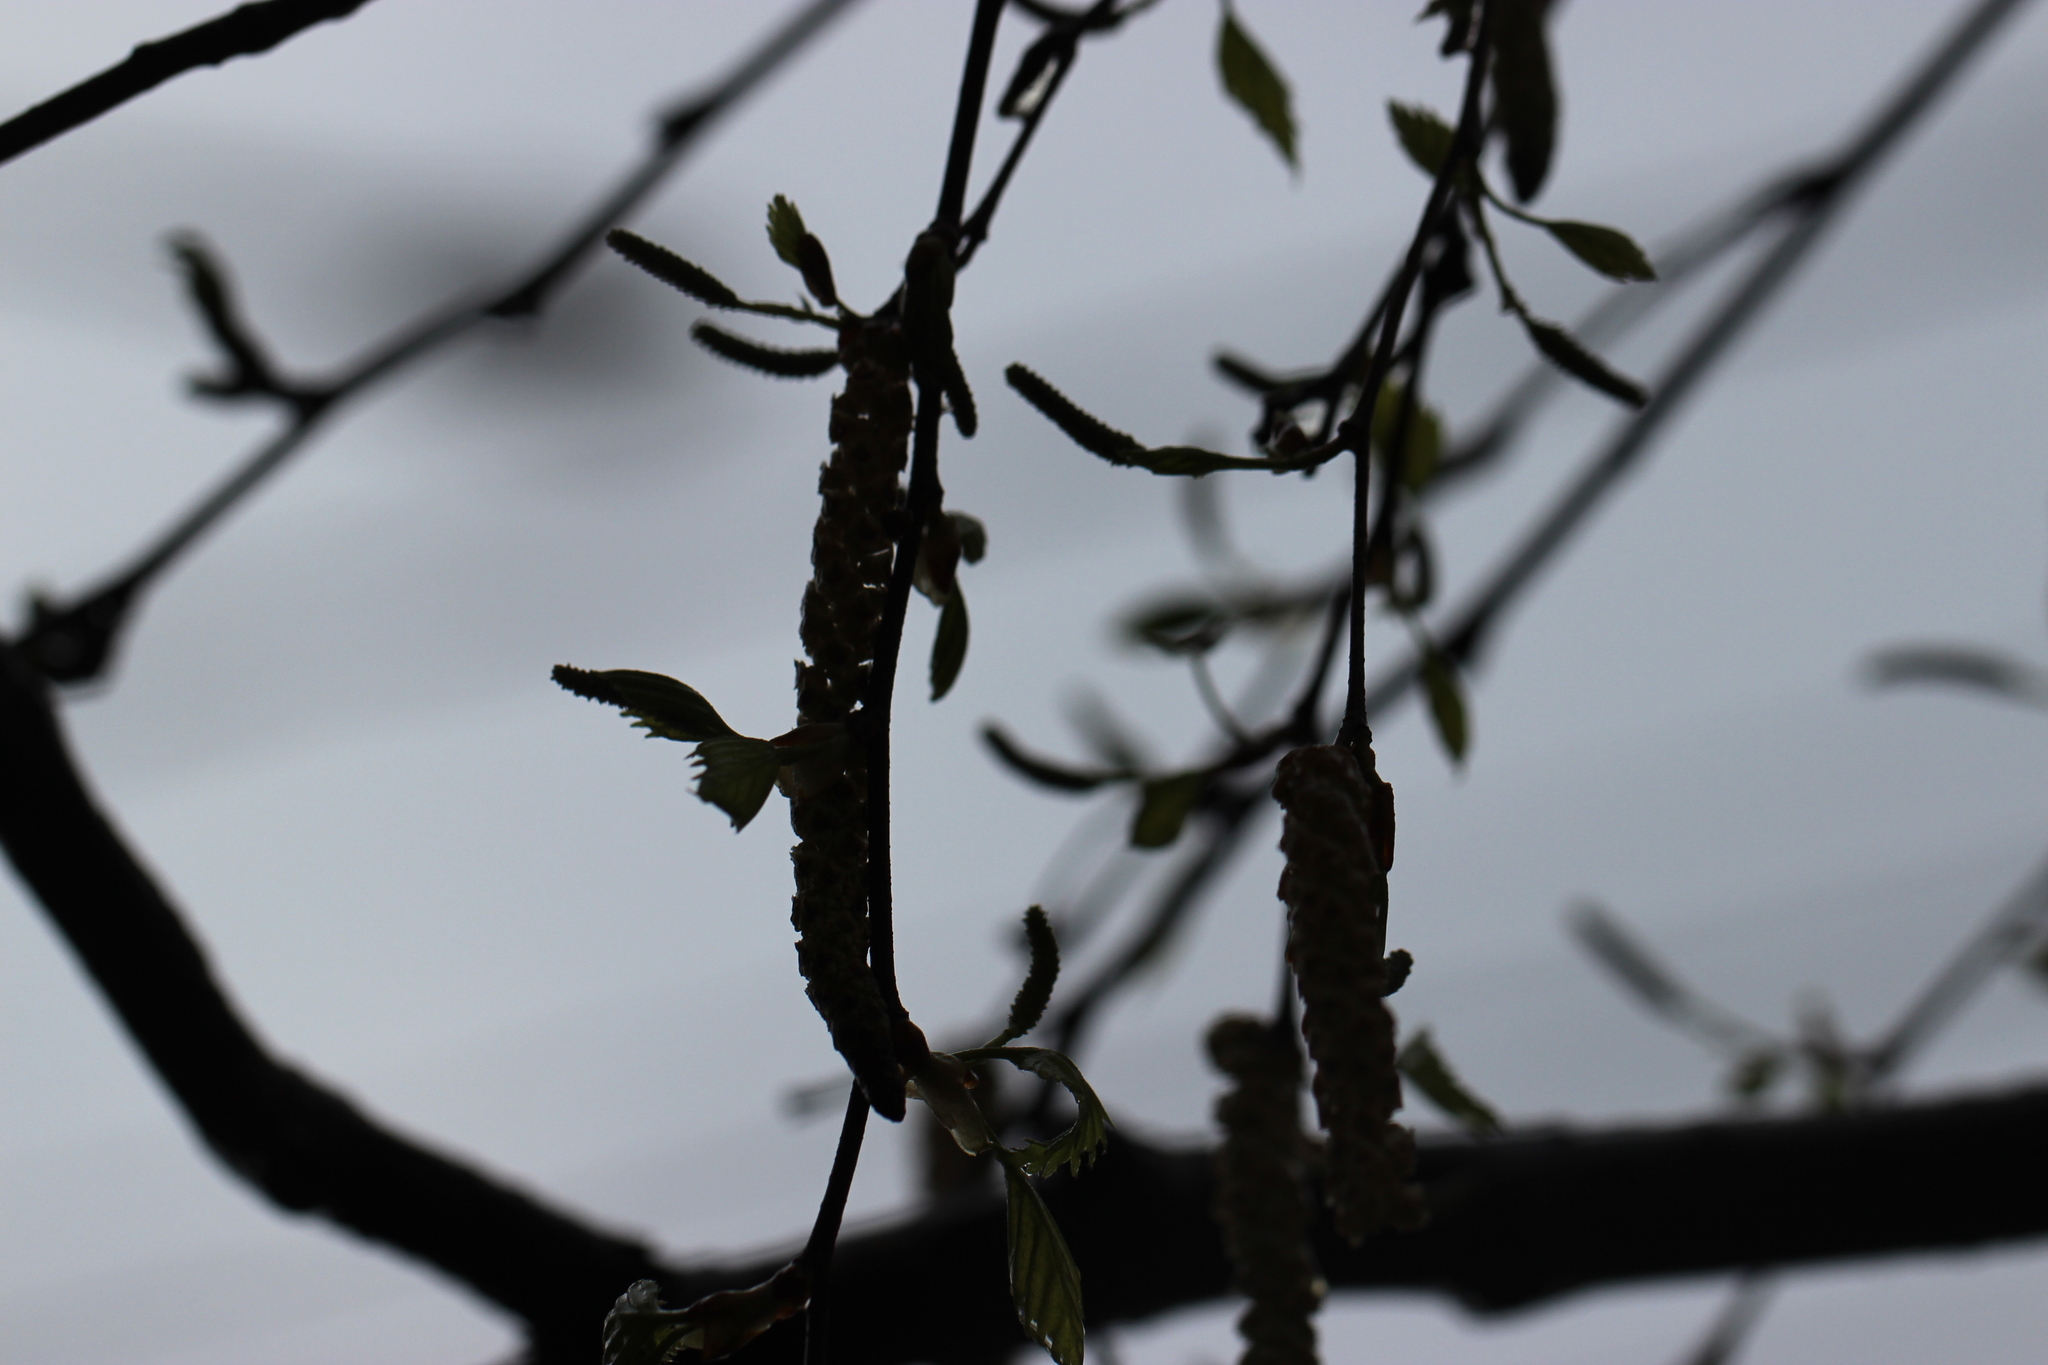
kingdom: Plantae
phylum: Tracheophyta
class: Magnoliopsida
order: Fagales
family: Betulaceae
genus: Betula
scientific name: Betula pendula
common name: Silver birch
